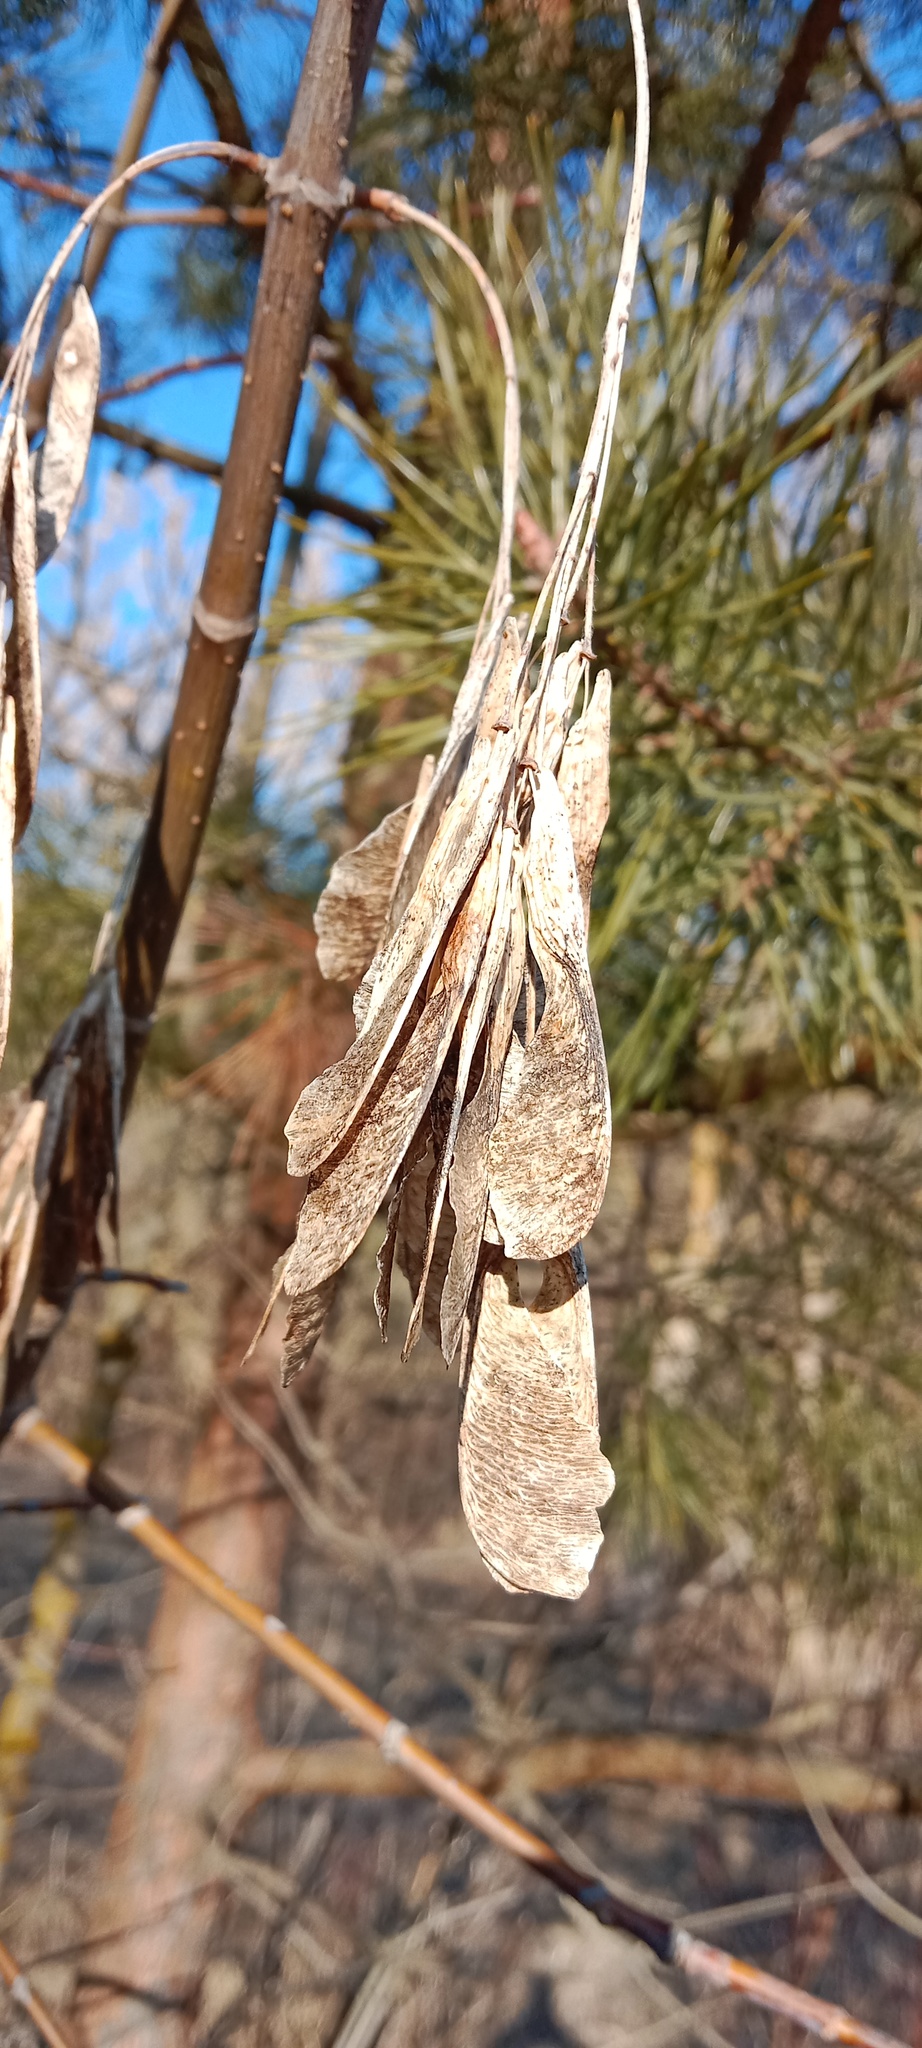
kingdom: Plantae
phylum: Tracheophyta
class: Magnoliopsida
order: Sapindales
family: Sapindaceae
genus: Acer
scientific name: Acer negundo
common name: Ashleaf maple
